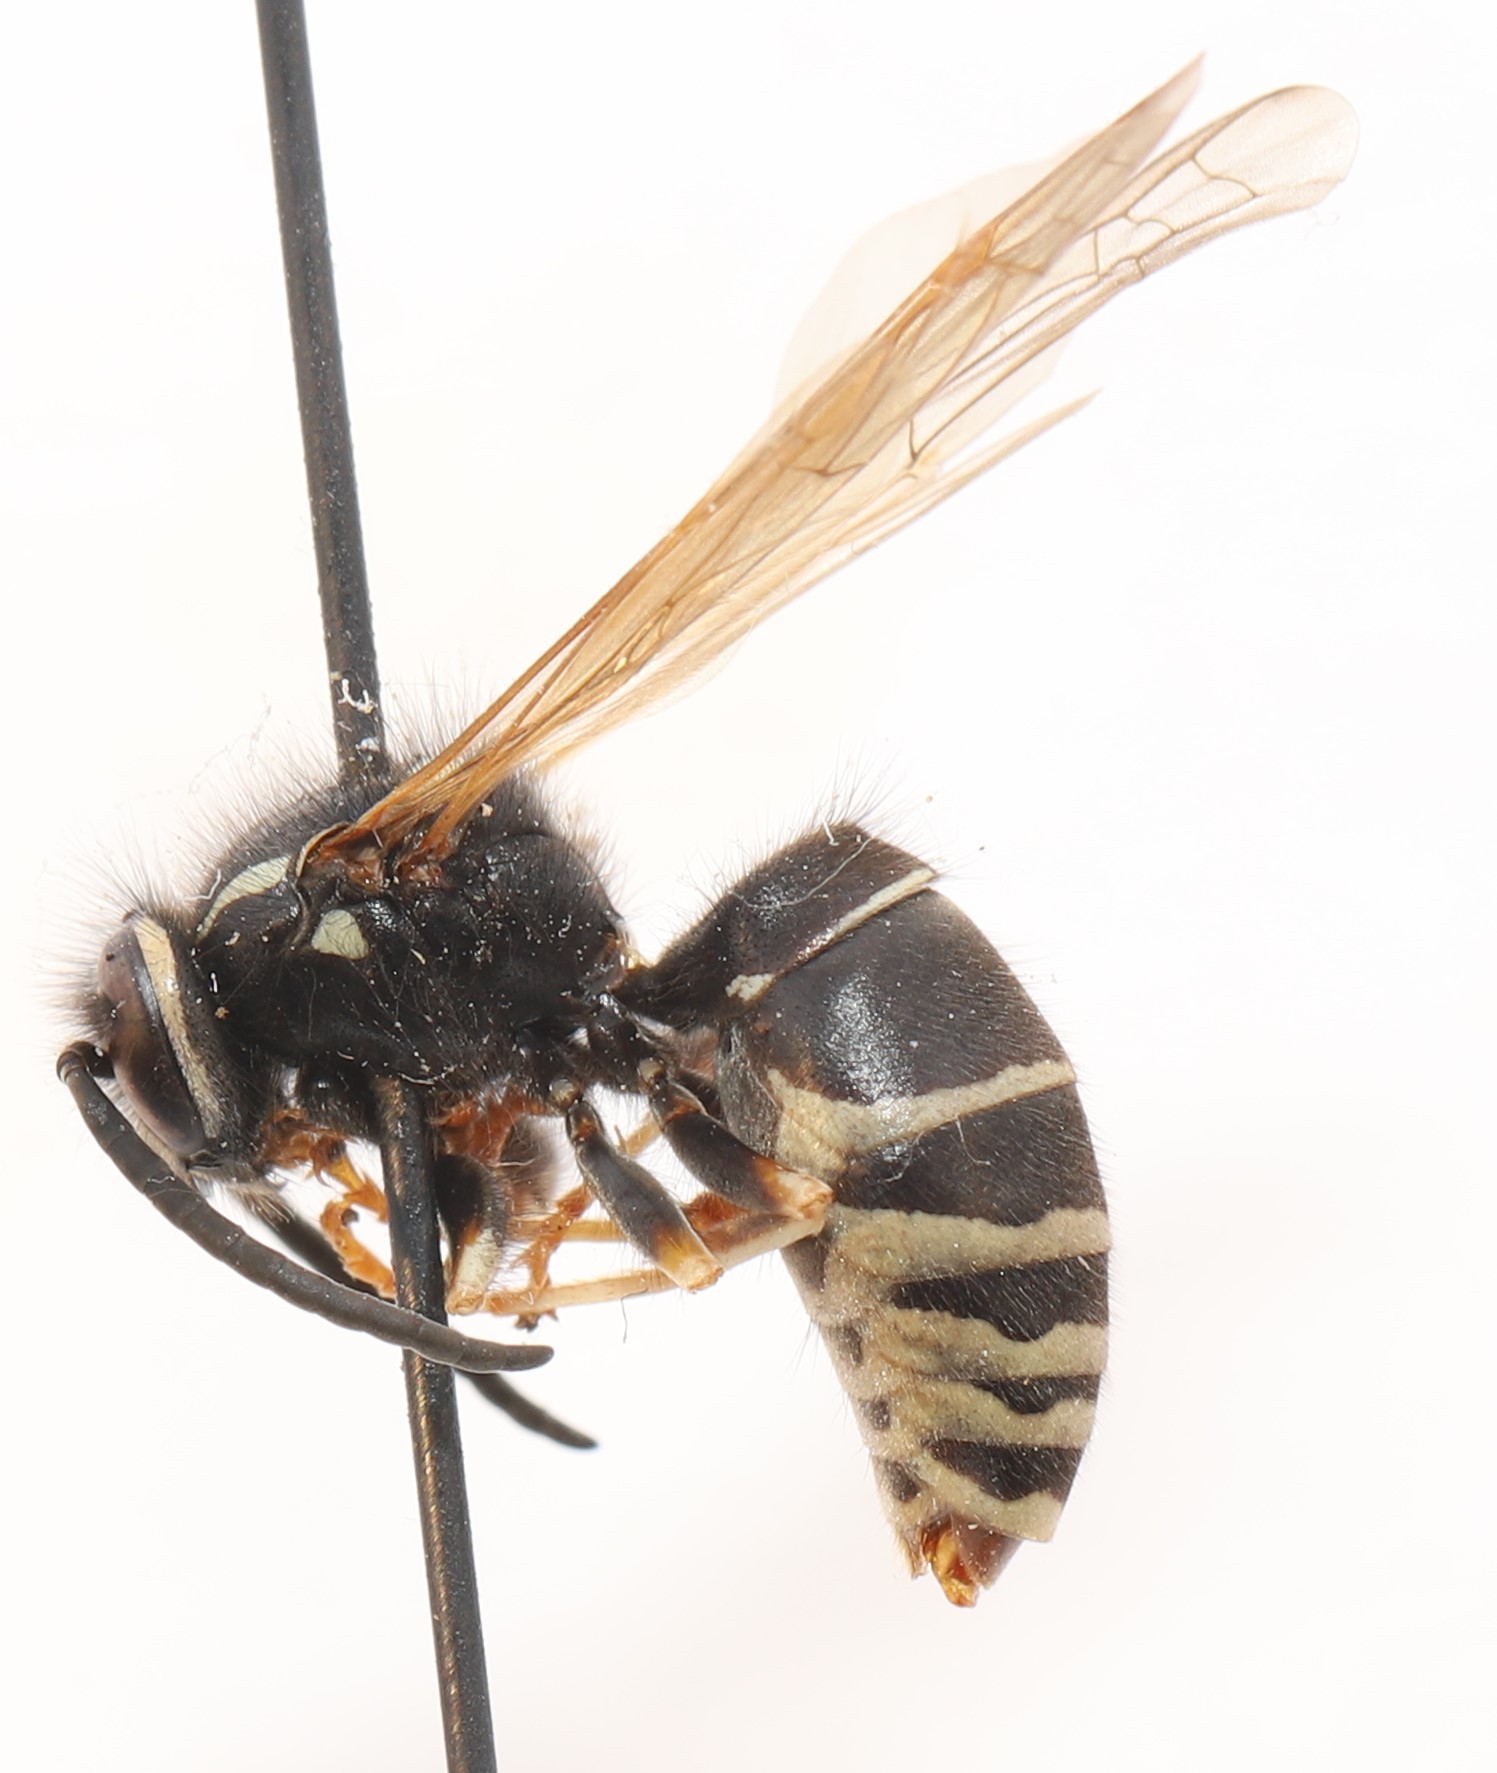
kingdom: Animalia
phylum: Arthropoda
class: Insecta
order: Hymenoptera
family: Vespidae
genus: Vespula
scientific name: Vespula consobrina
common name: Blackjacket
